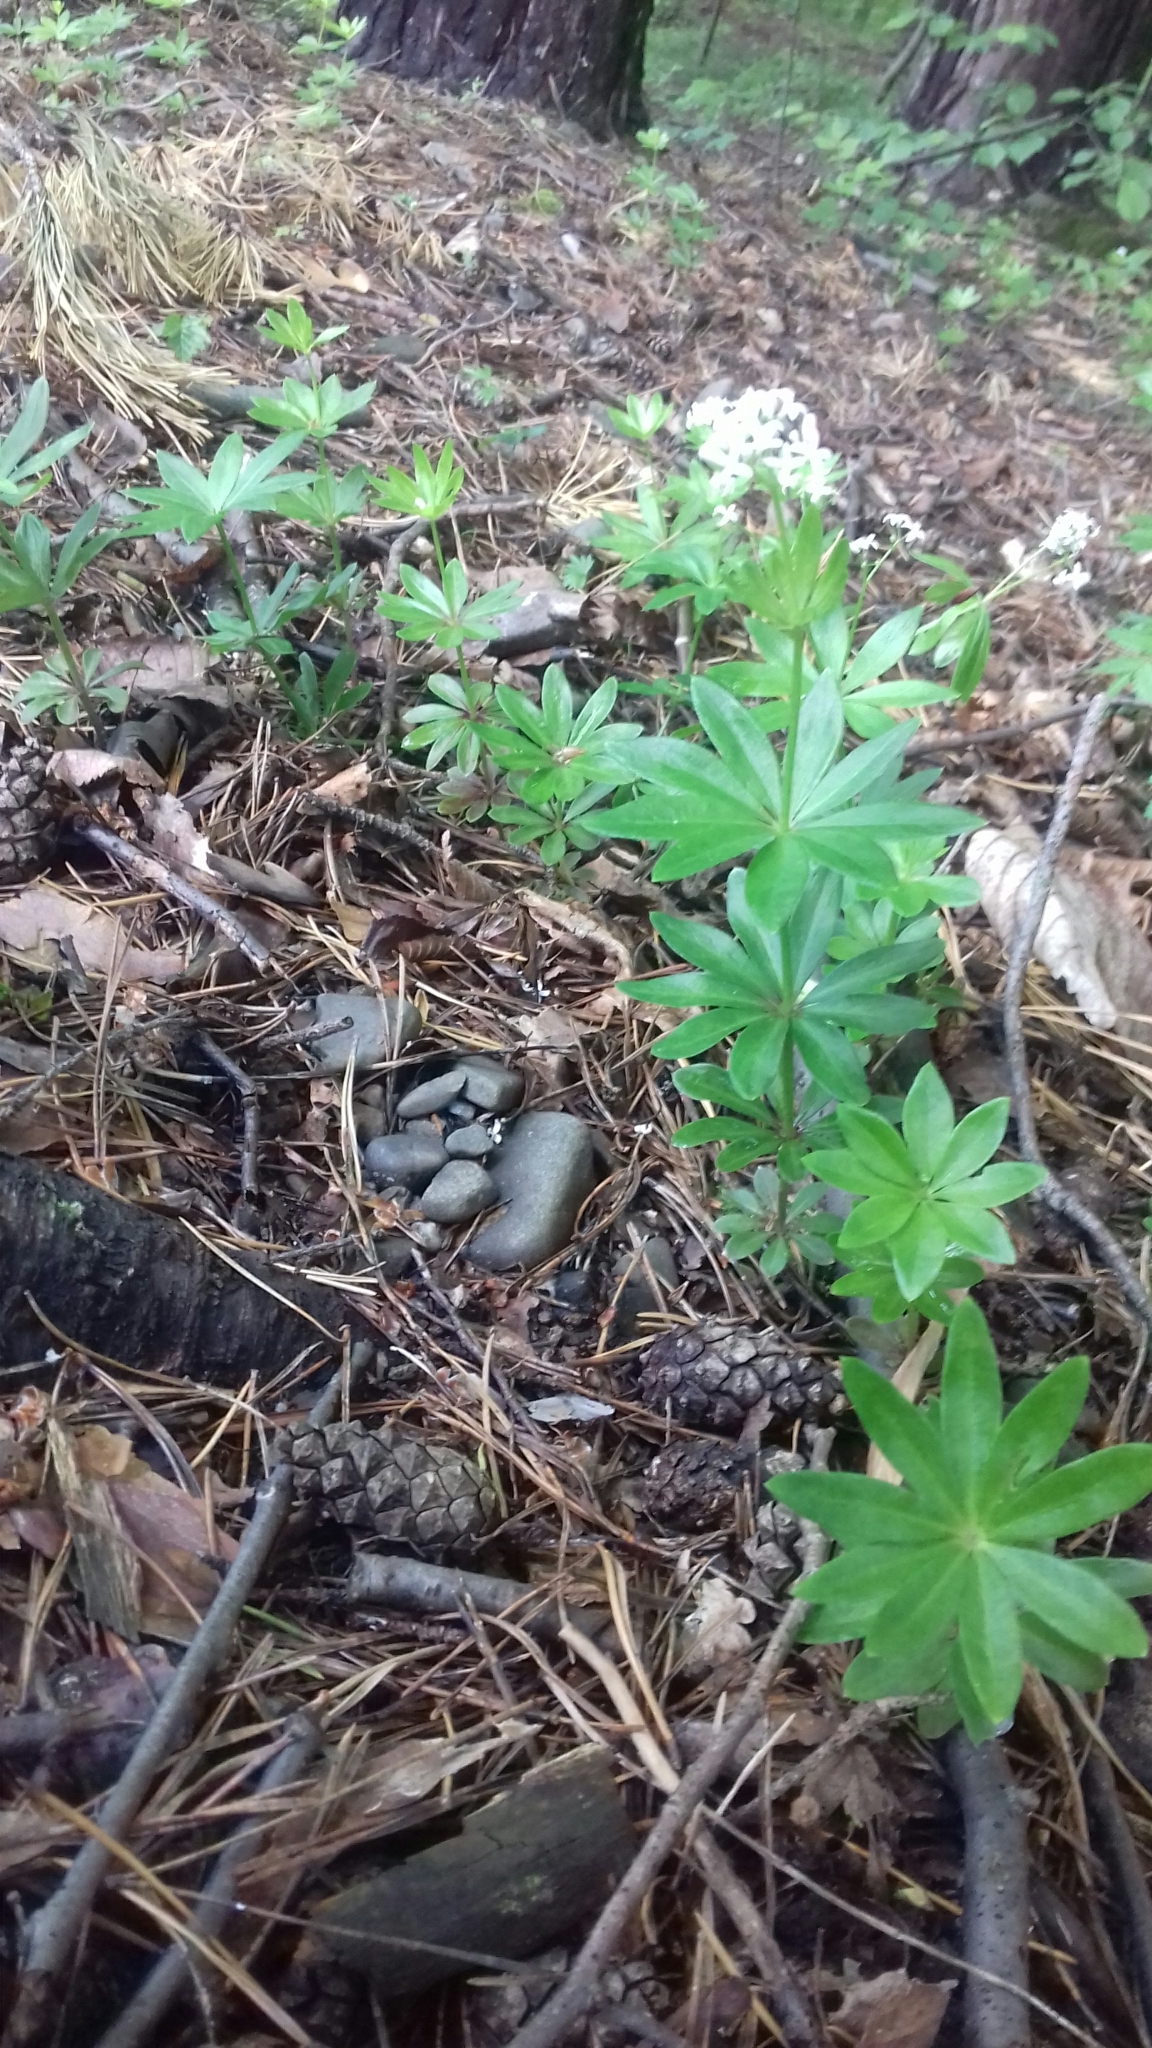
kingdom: Plantae
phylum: Tracheophyta
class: Magnoliopsida
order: Gentianales
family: Rubiaceae
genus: Galium
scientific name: Galium odoratum
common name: Sweet woodruff
